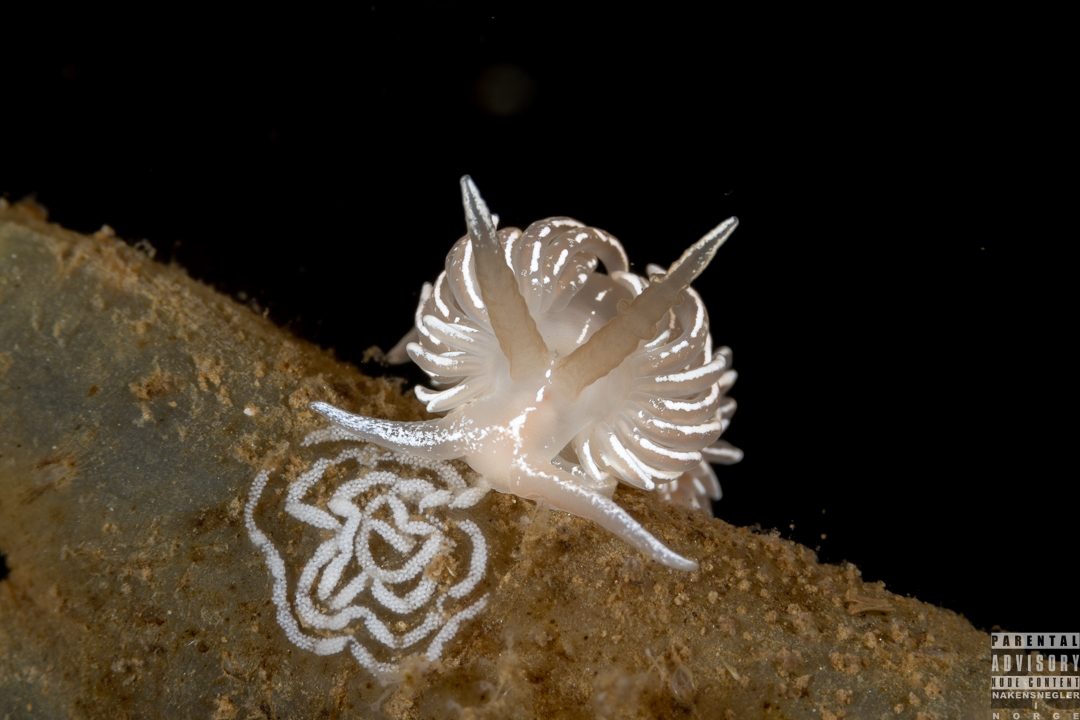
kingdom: Animalia
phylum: Mollusca
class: Gastropoda
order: Nudibranchia
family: Facelinidae
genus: Favorinus
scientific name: Favorinus blianus
